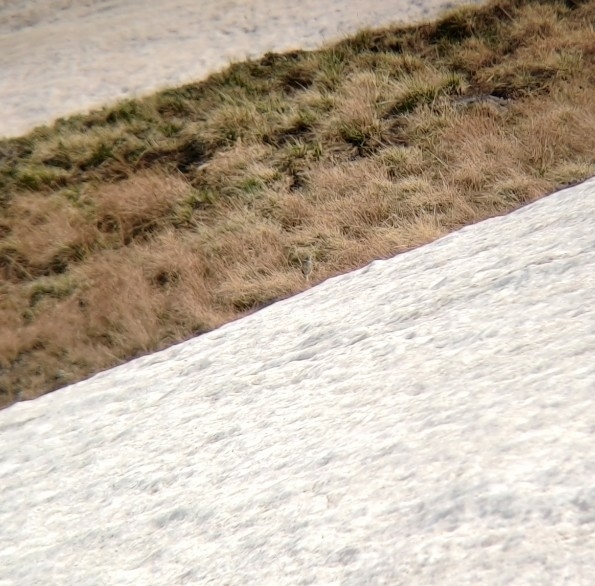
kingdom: Animalia
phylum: Chordata
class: Aves
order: Passeriformes
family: Motacillidae
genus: Anthus
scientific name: Anthus rubescens
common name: Buff-bellied pipit
